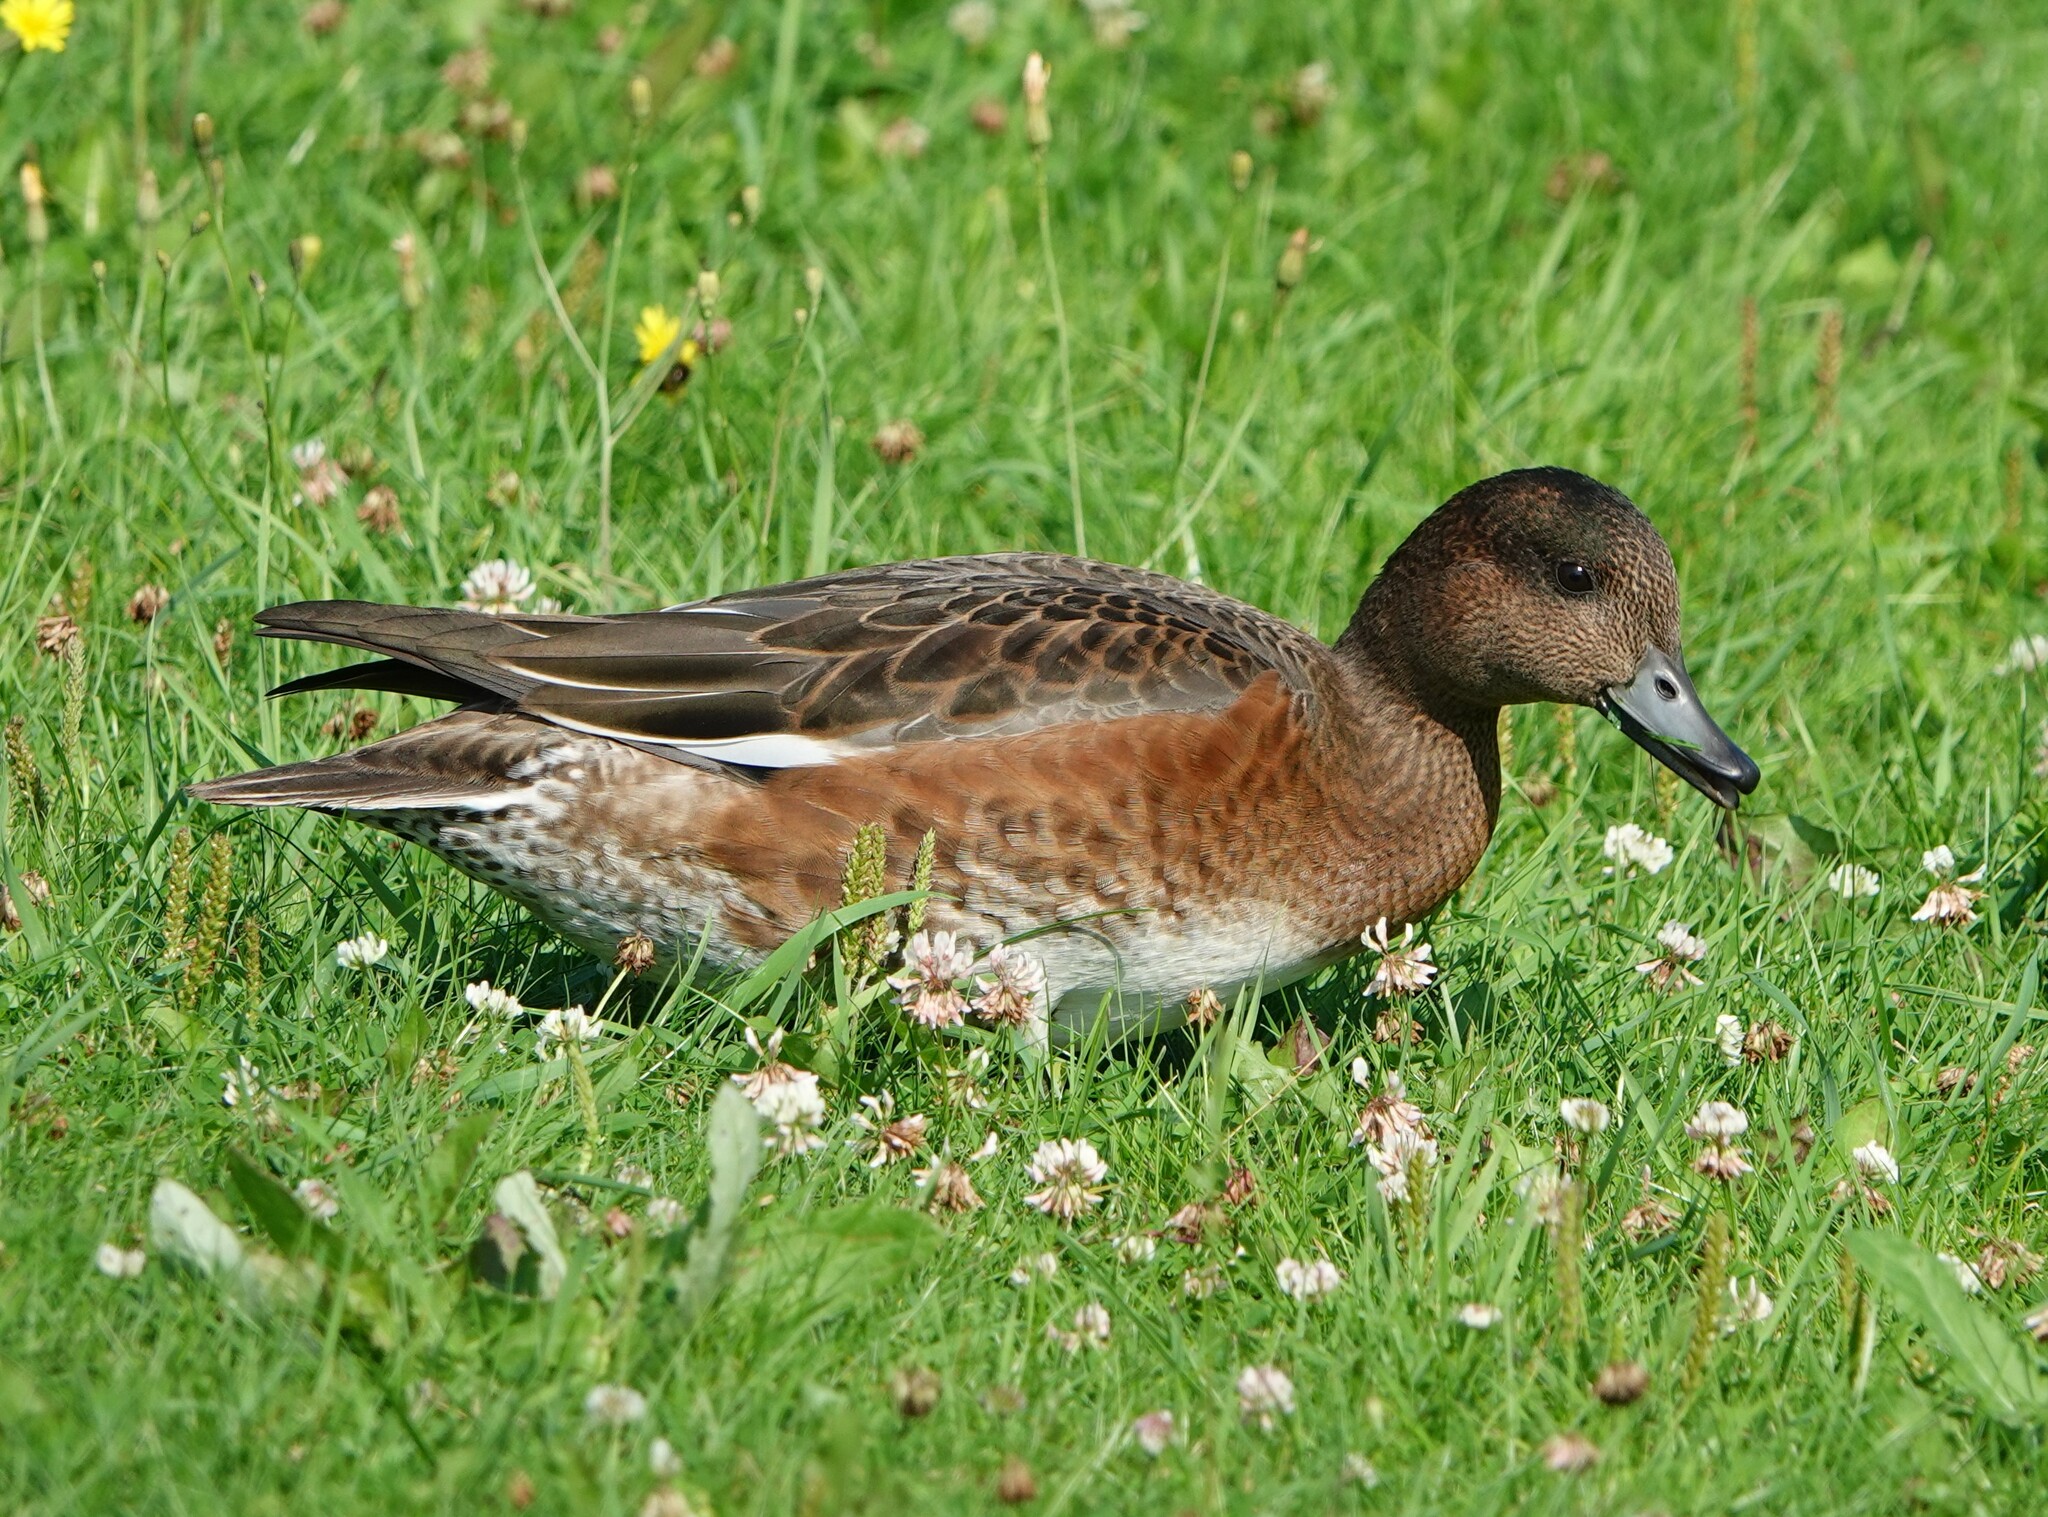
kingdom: Animalia
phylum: Chordata
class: Aves
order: Anseriformes
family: Anatidae
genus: Mareca
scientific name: Mareca penelope
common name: Eurasian wigeon
